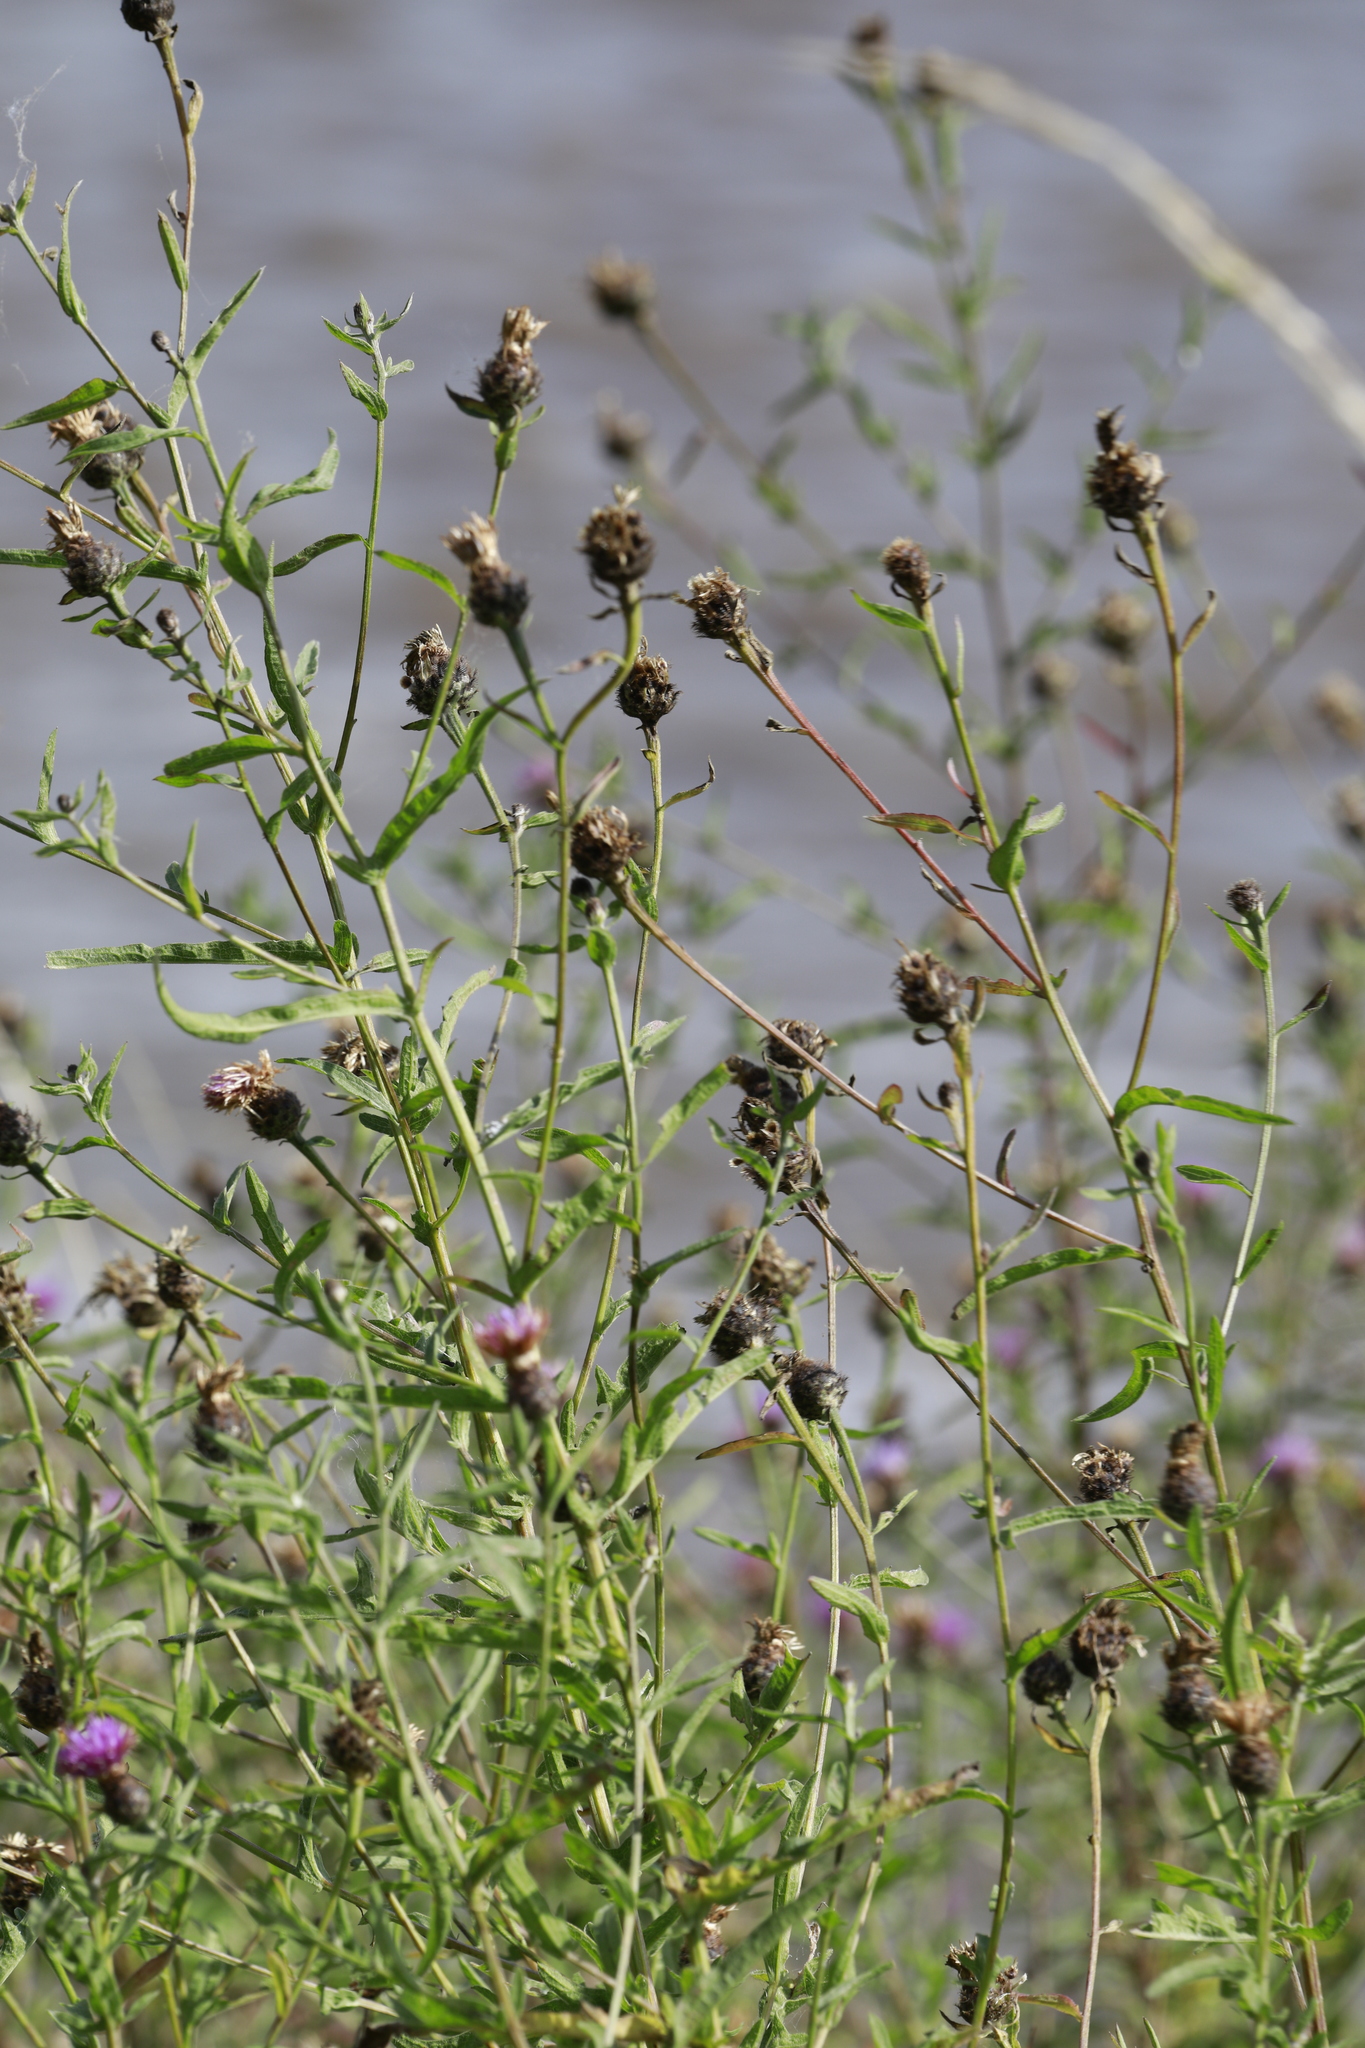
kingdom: Plantae
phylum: Tracheophyta
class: Magnoliopsida
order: Asterales
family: Asteraceae
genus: Centaurea
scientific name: Centaurea nigra
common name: Lesser knapweed
